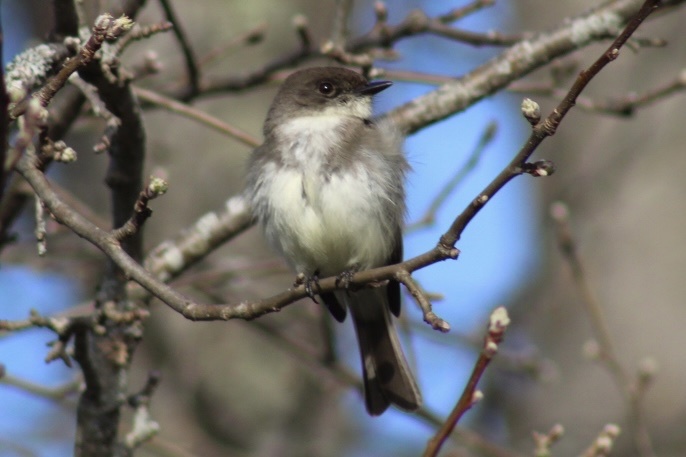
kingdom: Animalia
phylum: Chordata
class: Aves
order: Passeriformes
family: Tyrannidae
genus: Sayornis
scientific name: Sayornis phoebe
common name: Eastern phoebe
